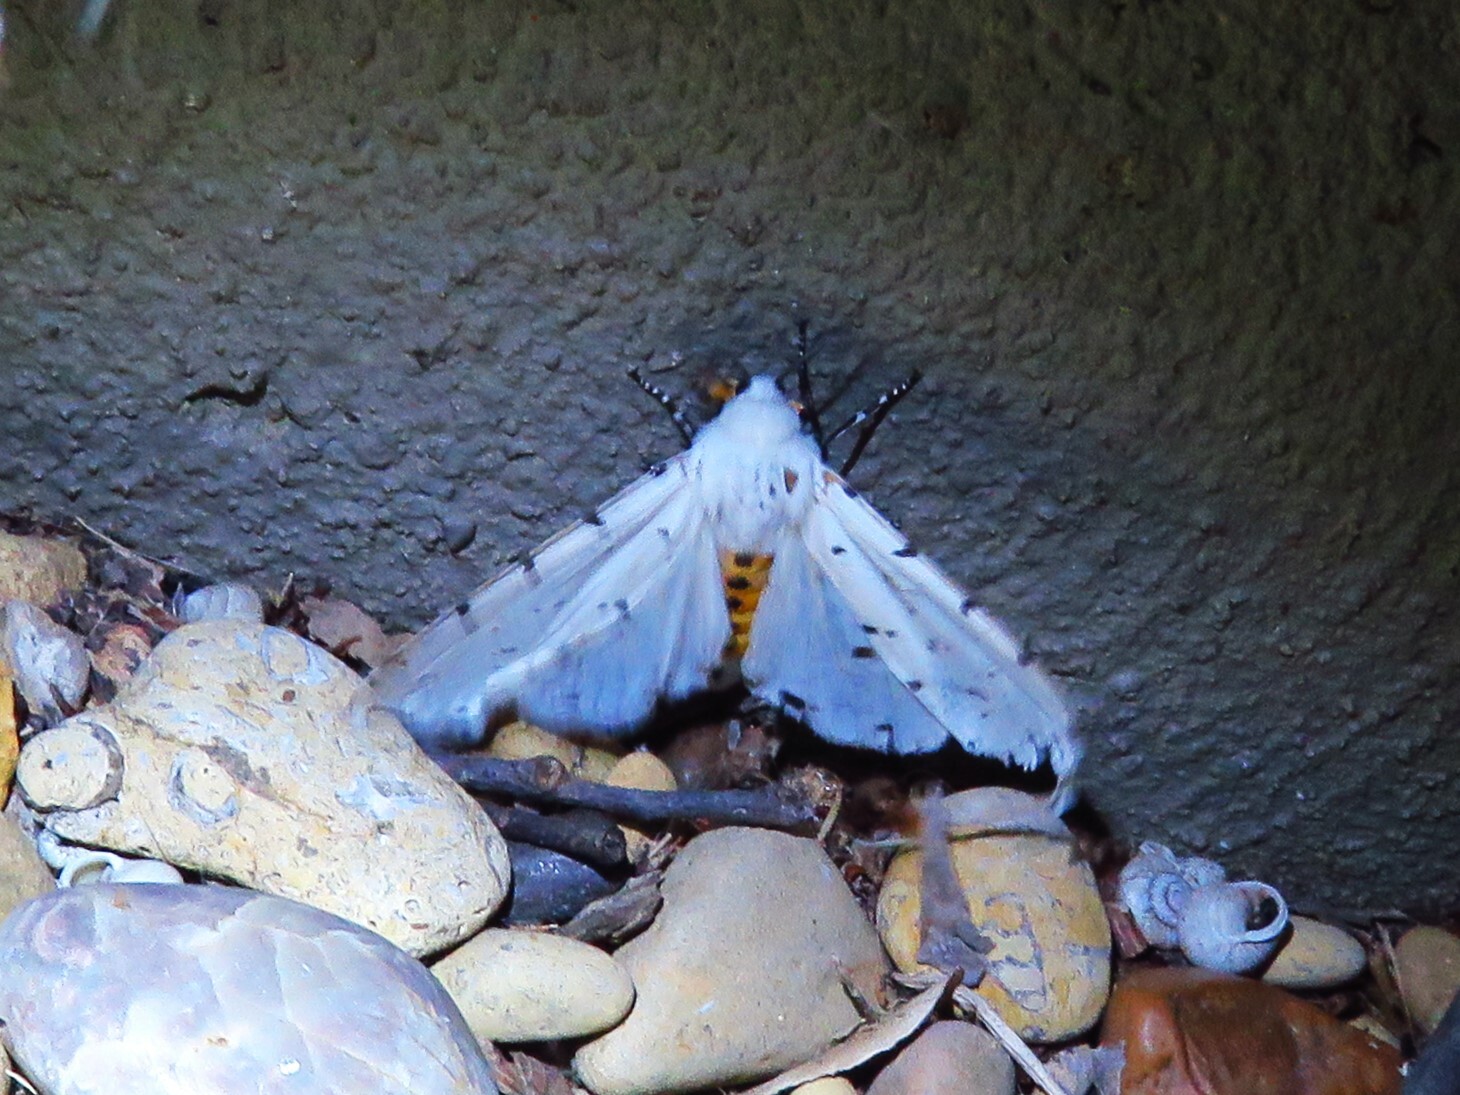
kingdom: Animalia
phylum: Arthropoda
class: Insecta
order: Lepidoptera
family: Erebidae
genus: Estigmene
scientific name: Estigmene acrea
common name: Salt marsh moth
